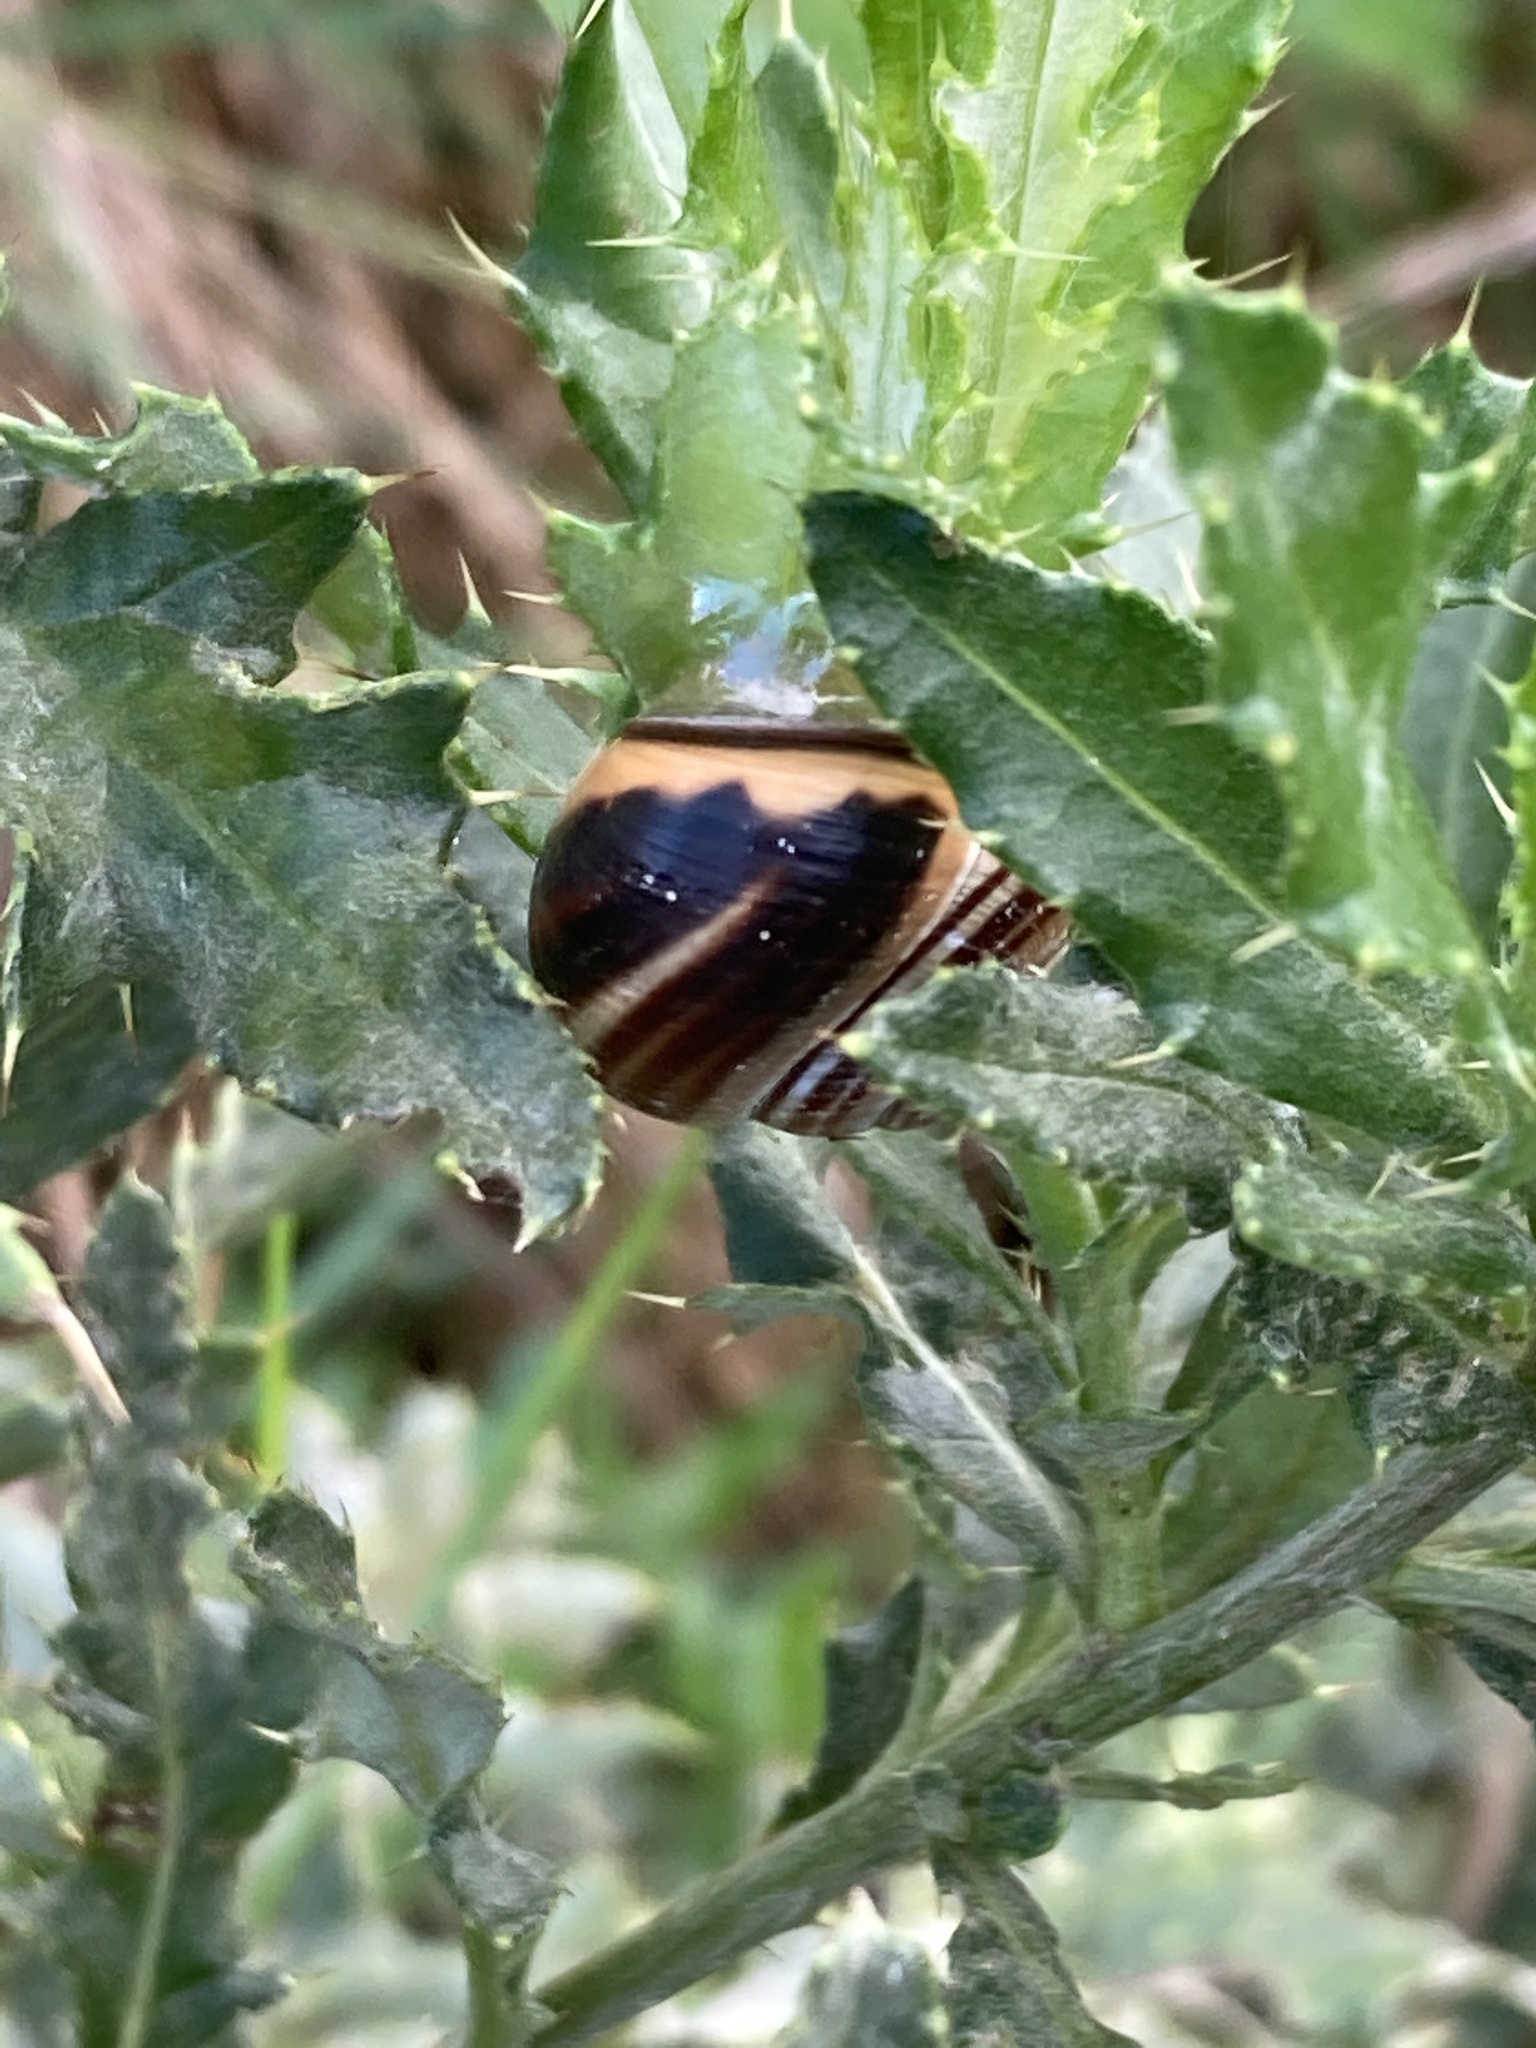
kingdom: Animalia
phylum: Mollusca
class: Gastropoda
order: Stylommatophora
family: Helicidae
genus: Cepaea
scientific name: Cepaea nemoralis
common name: Grovesnail
